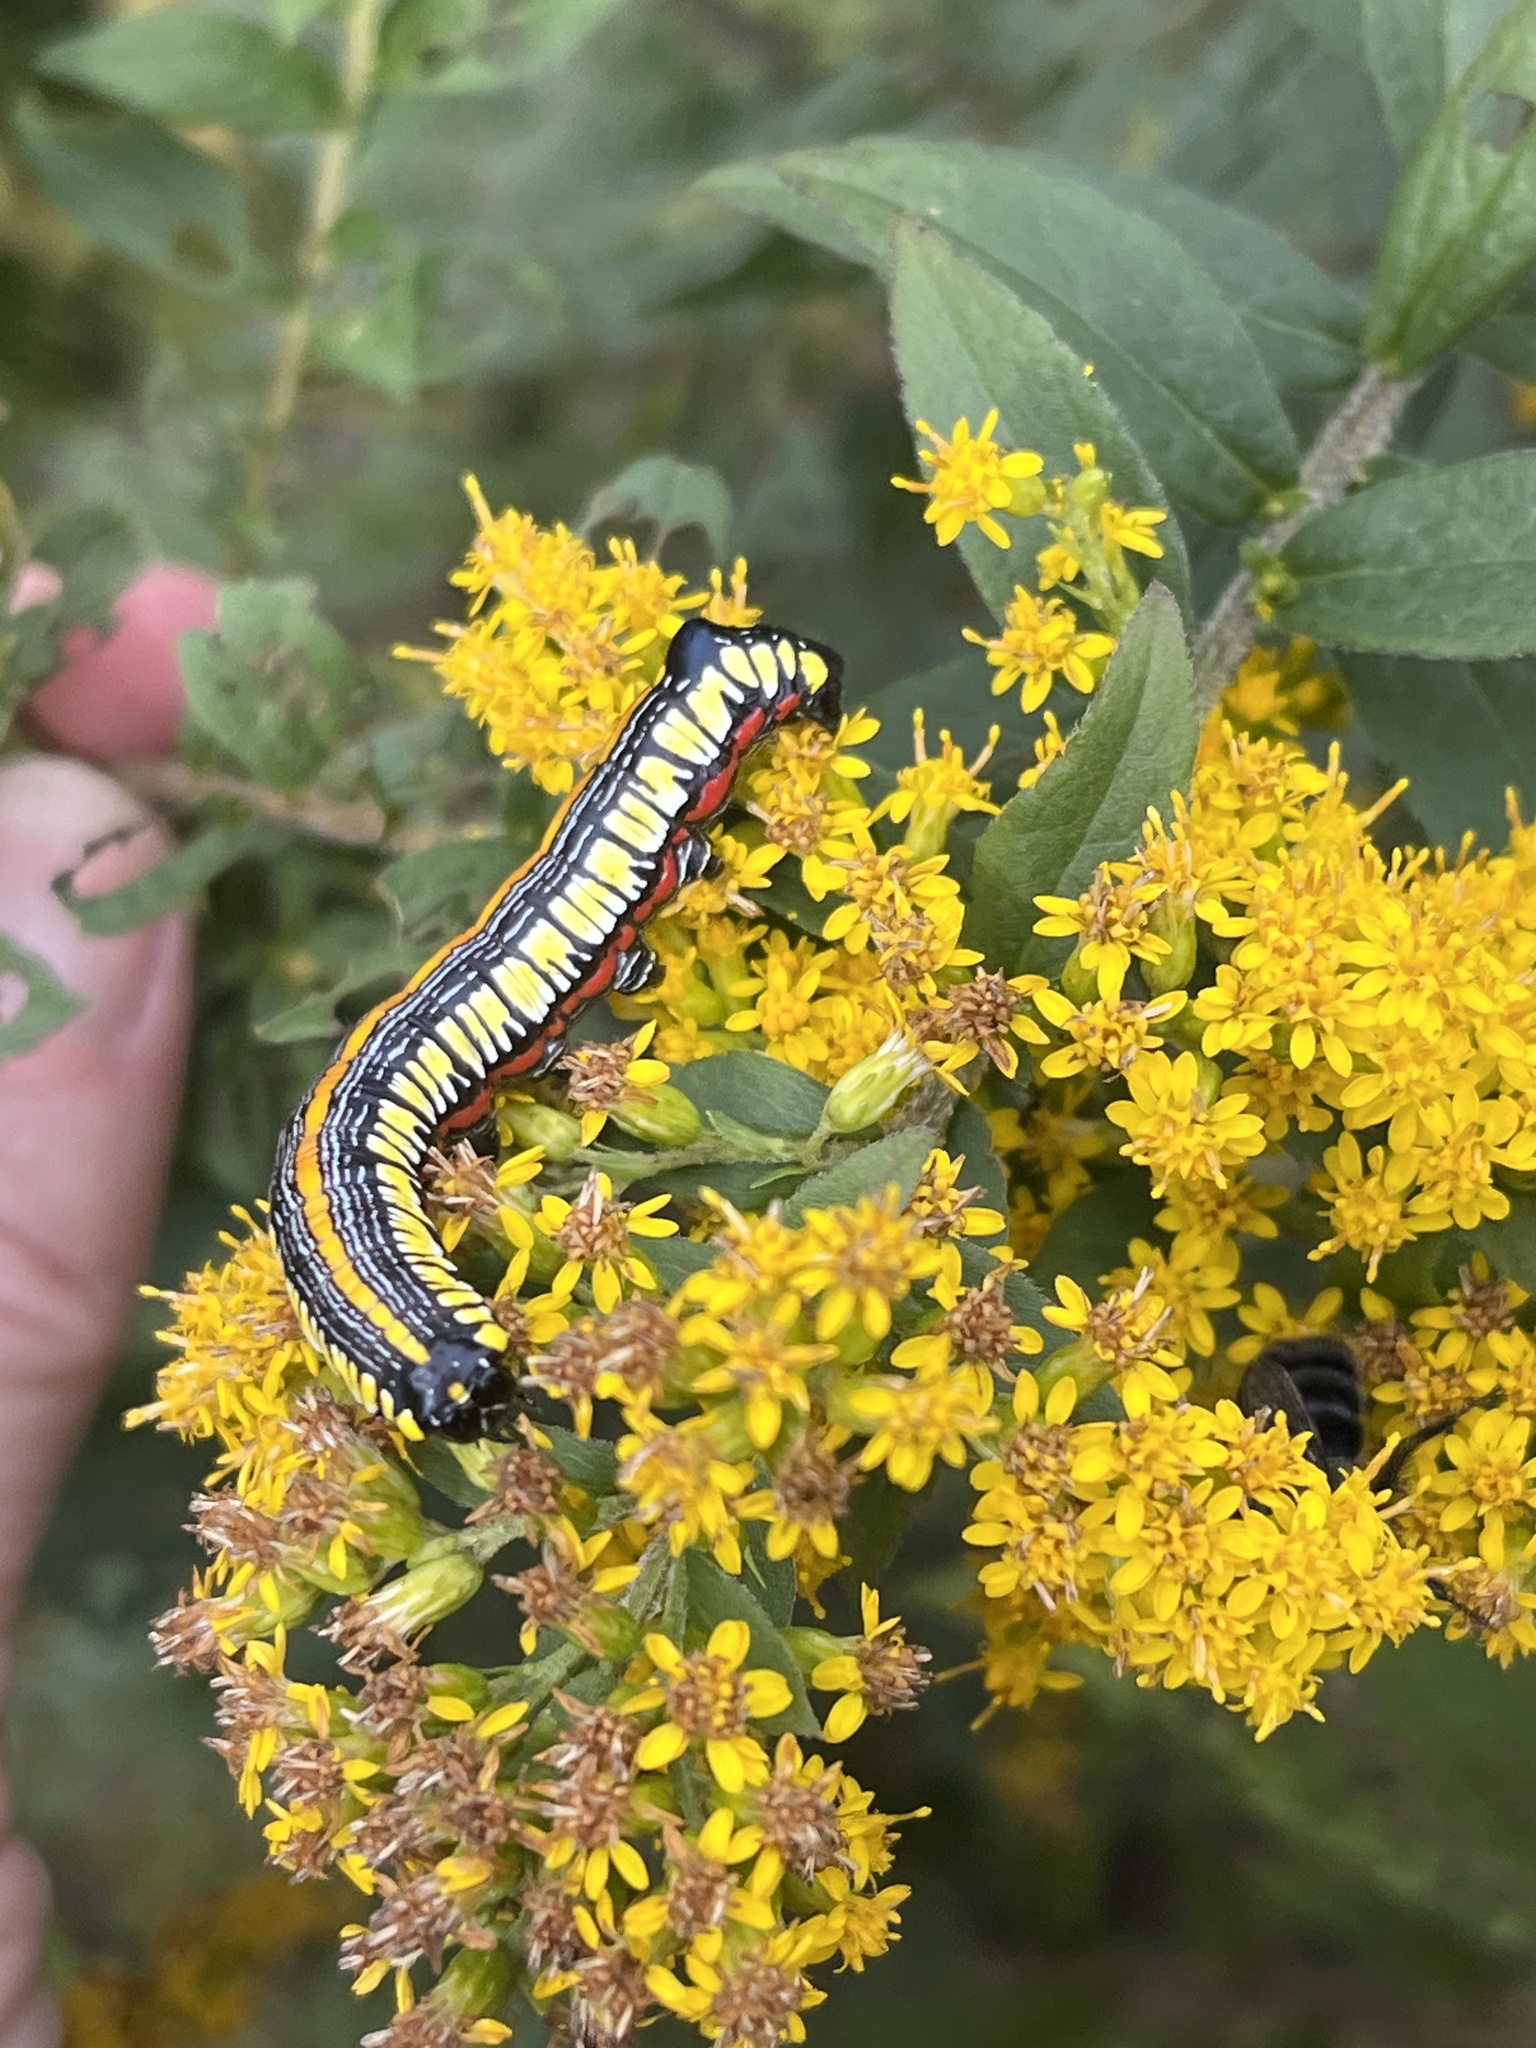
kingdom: Animalia
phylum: Arthropoda
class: Insecta
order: Lepidoptera
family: Noctuidae
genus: Cucullia
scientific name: Cucullia convexipennis
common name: Brown-hooded owlet
